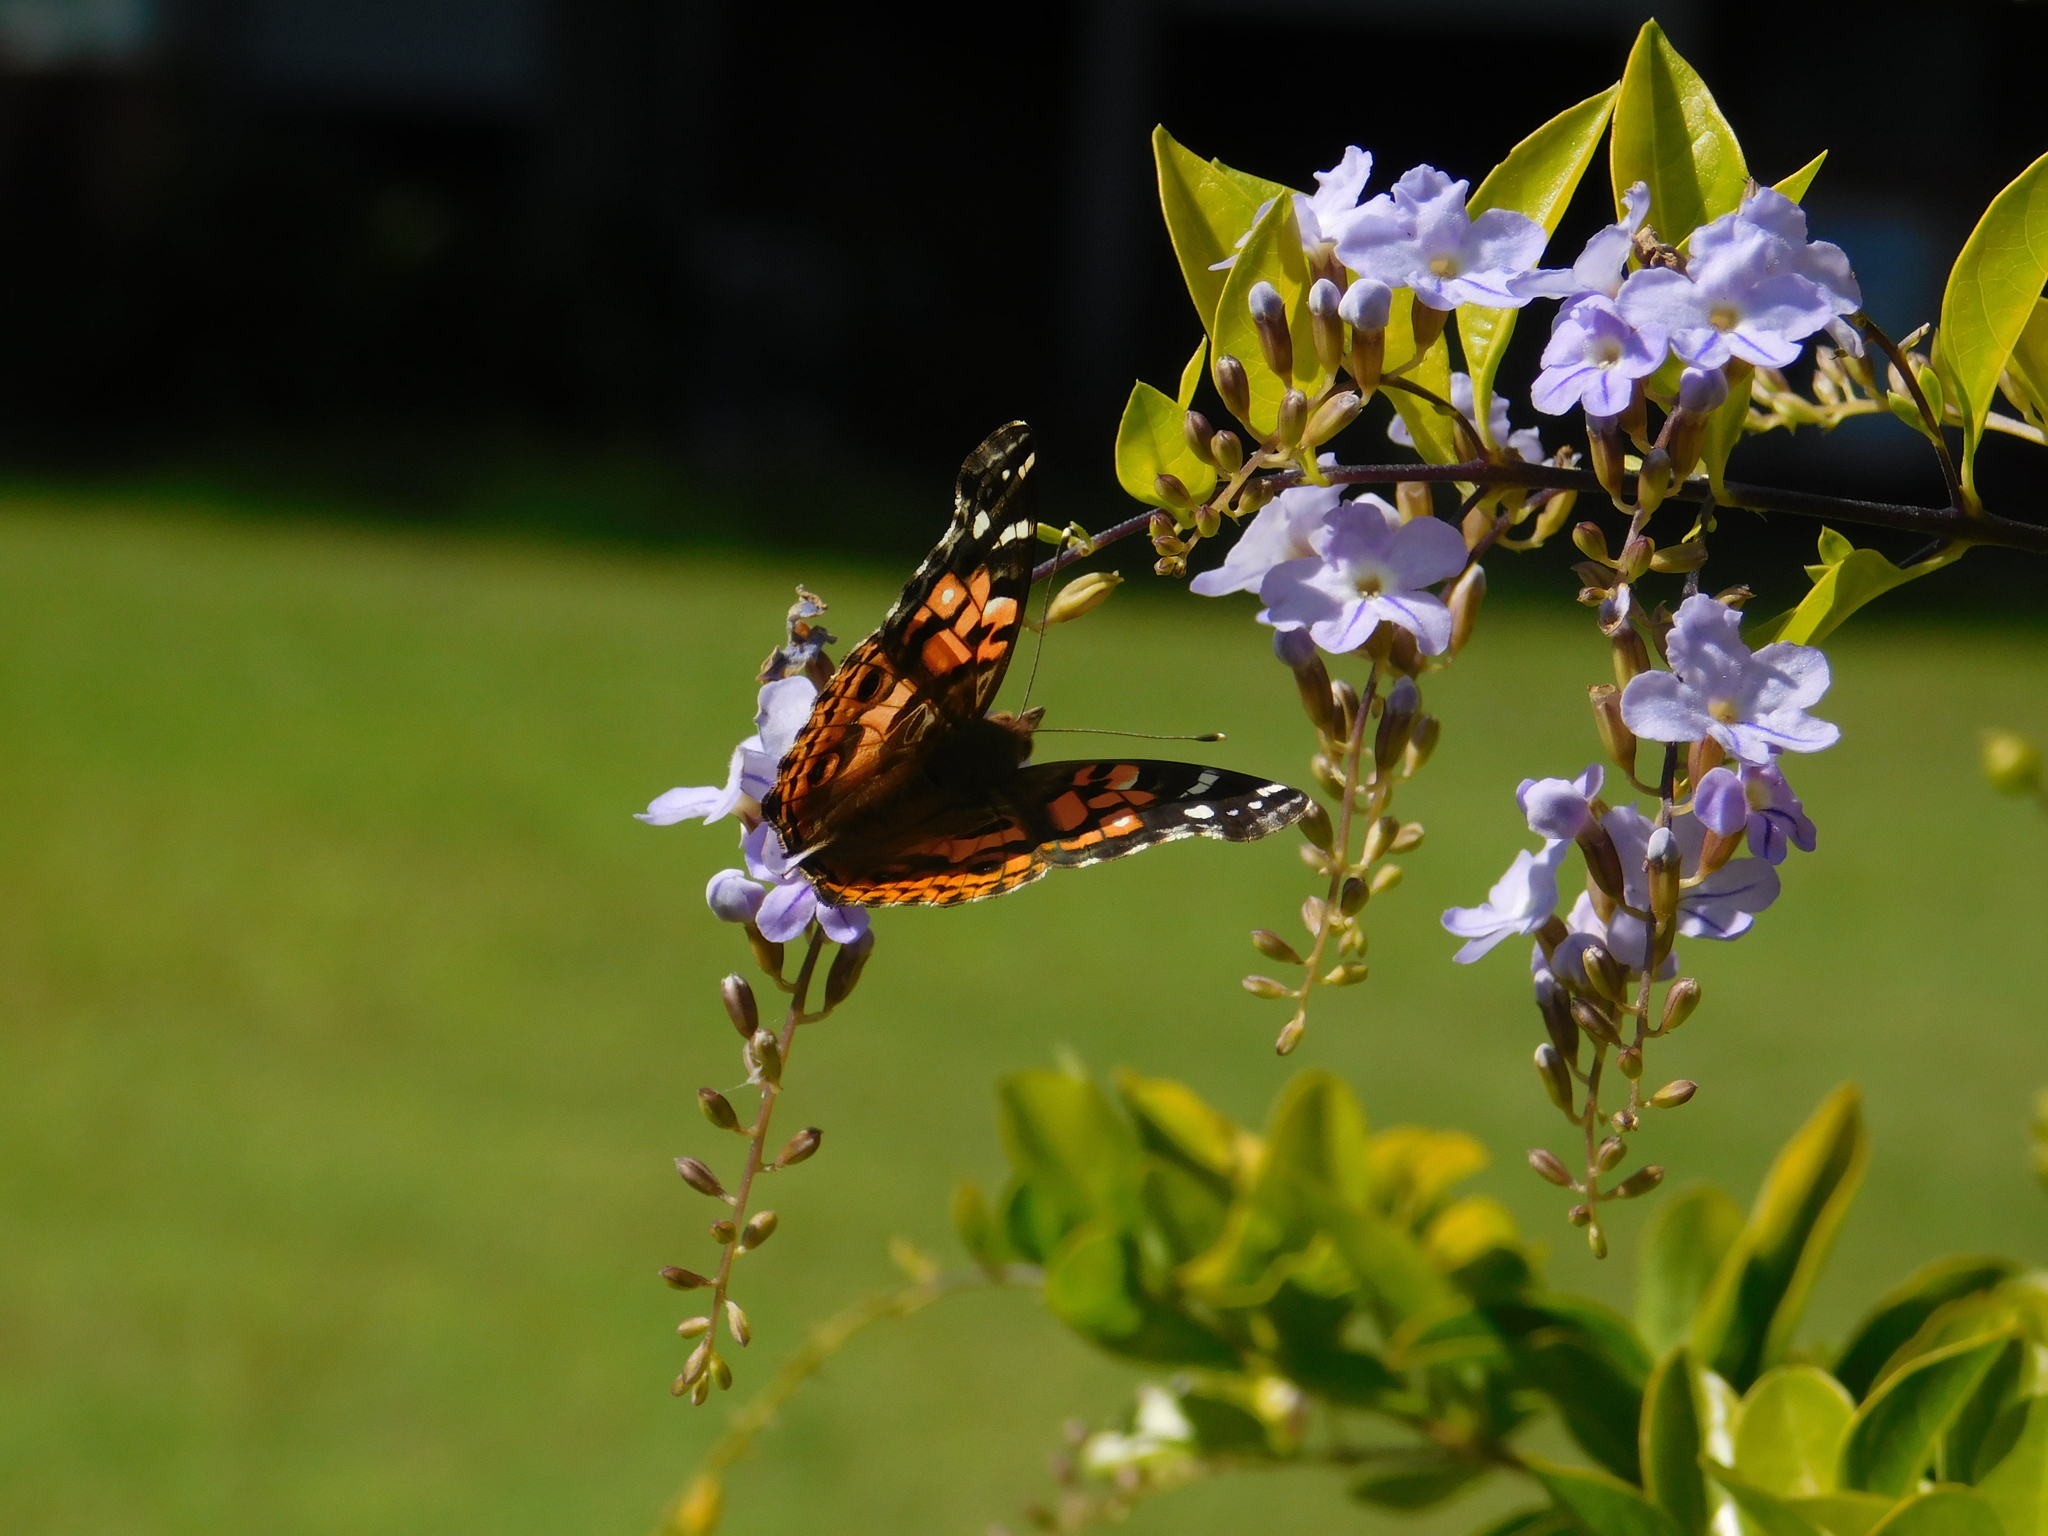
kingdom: Animalia
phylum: Arthropoda
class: Insecta
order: Lepidoptera
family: Nymphalidae
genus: Vanessa
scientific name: Vanessa braziliensis
